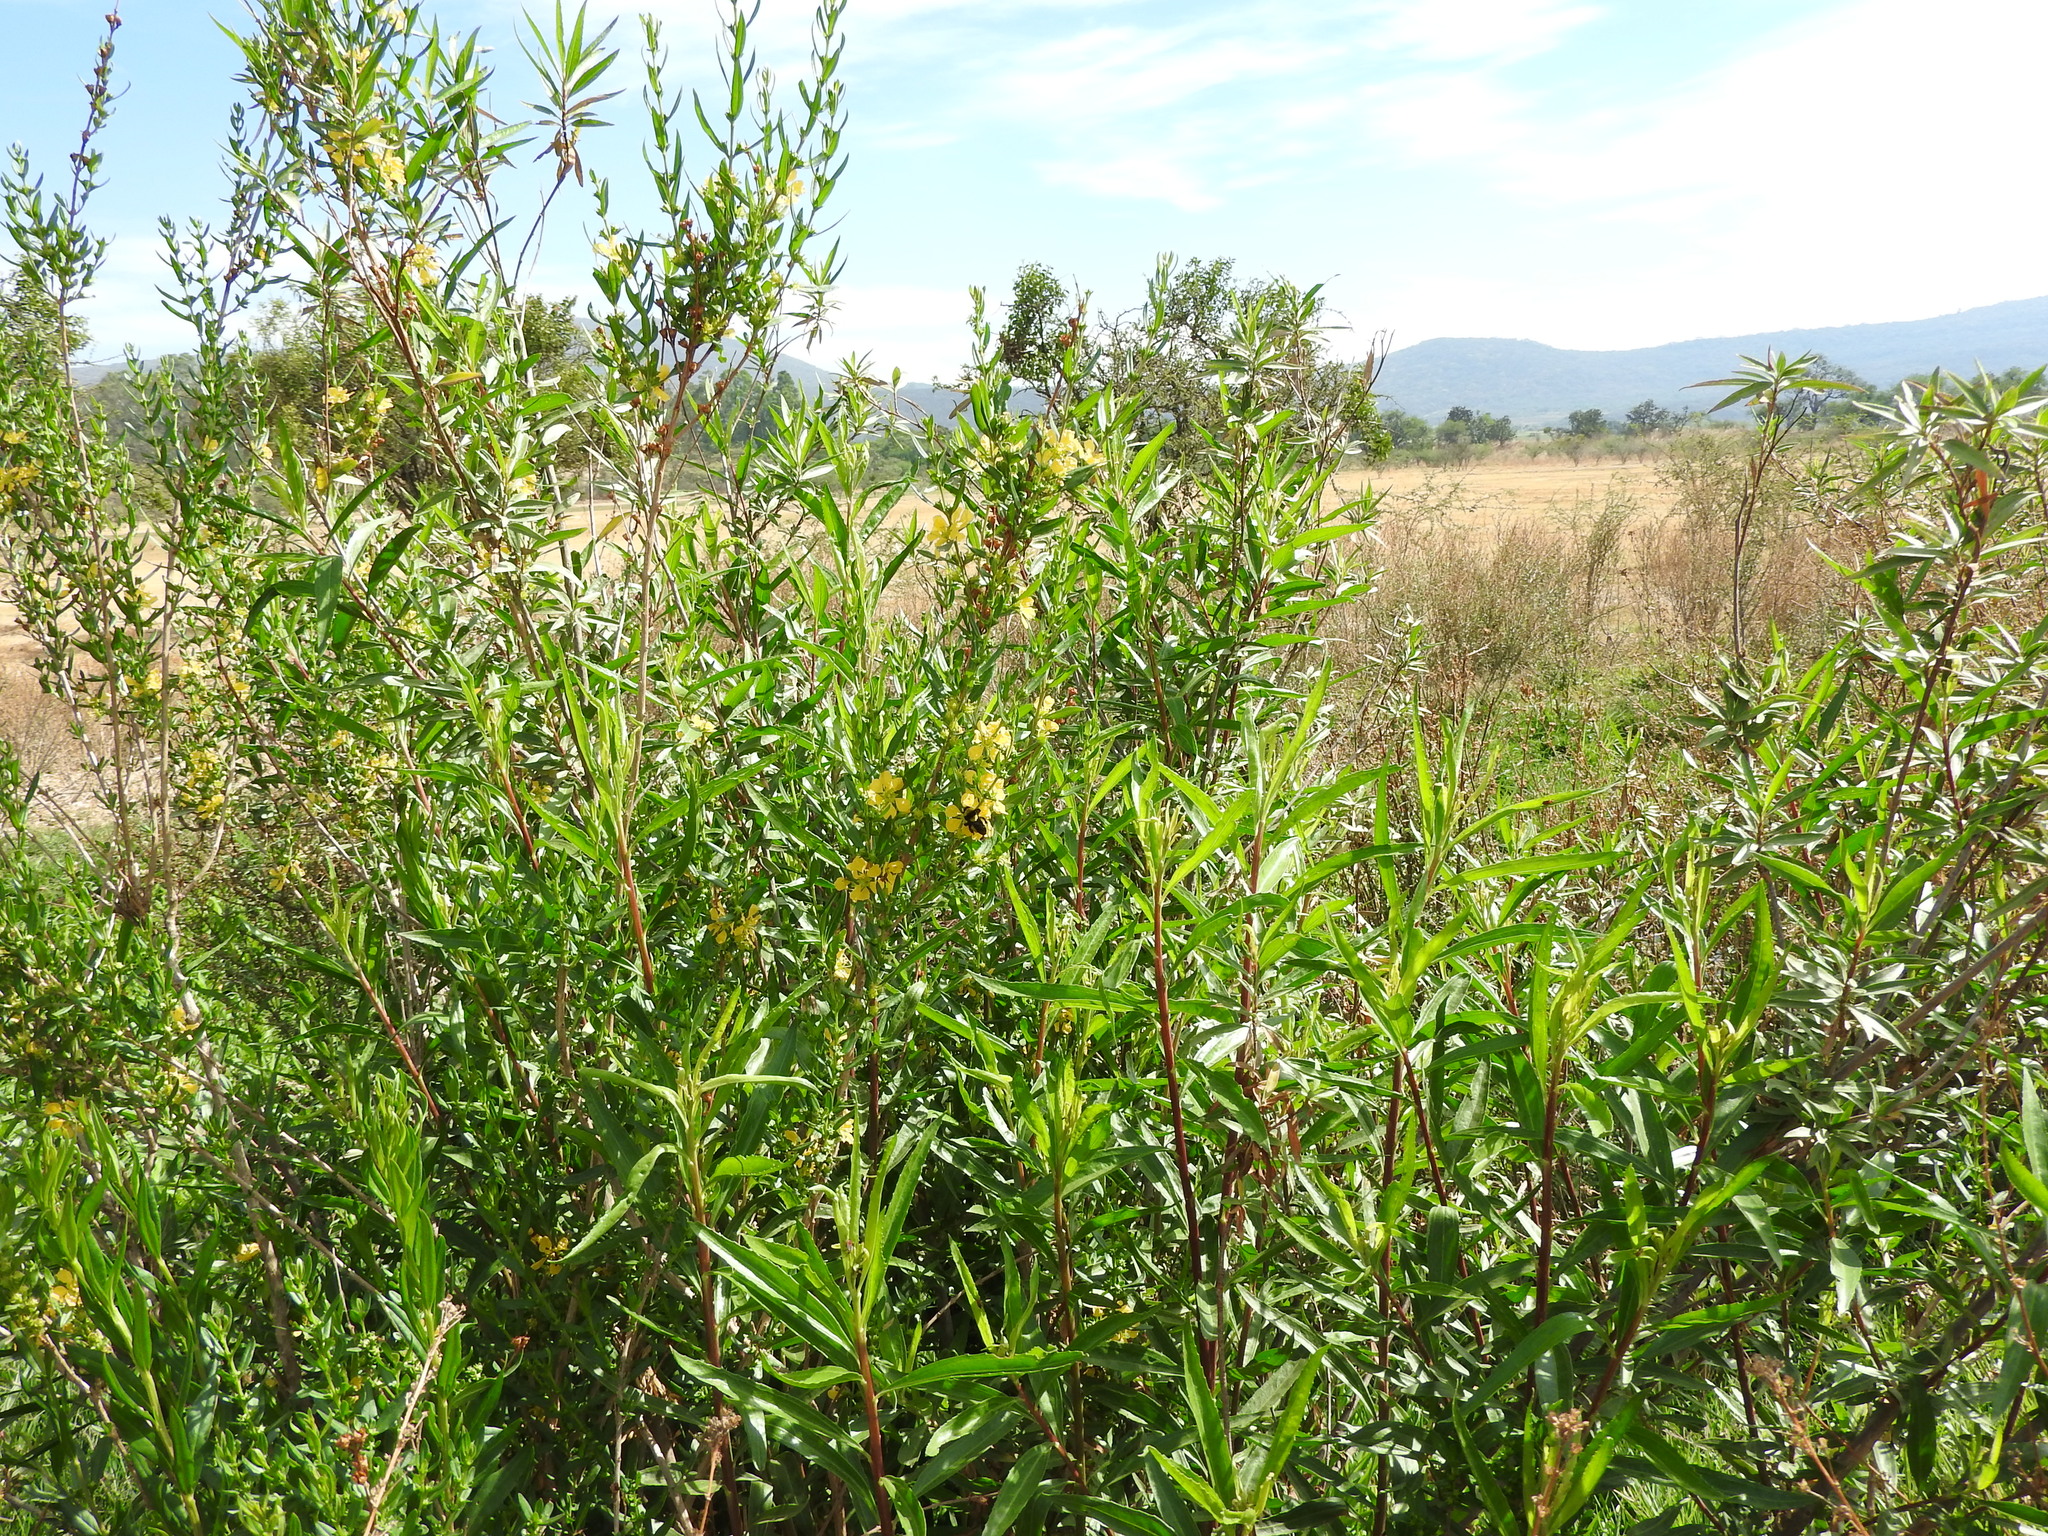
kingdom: Plantae
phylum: Tracheophyta
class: Magnoliopsida
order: Myrtales
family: Lythraceae
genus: Heimia
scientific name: Heimia salicifolia
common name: Willow-leaf heimia
